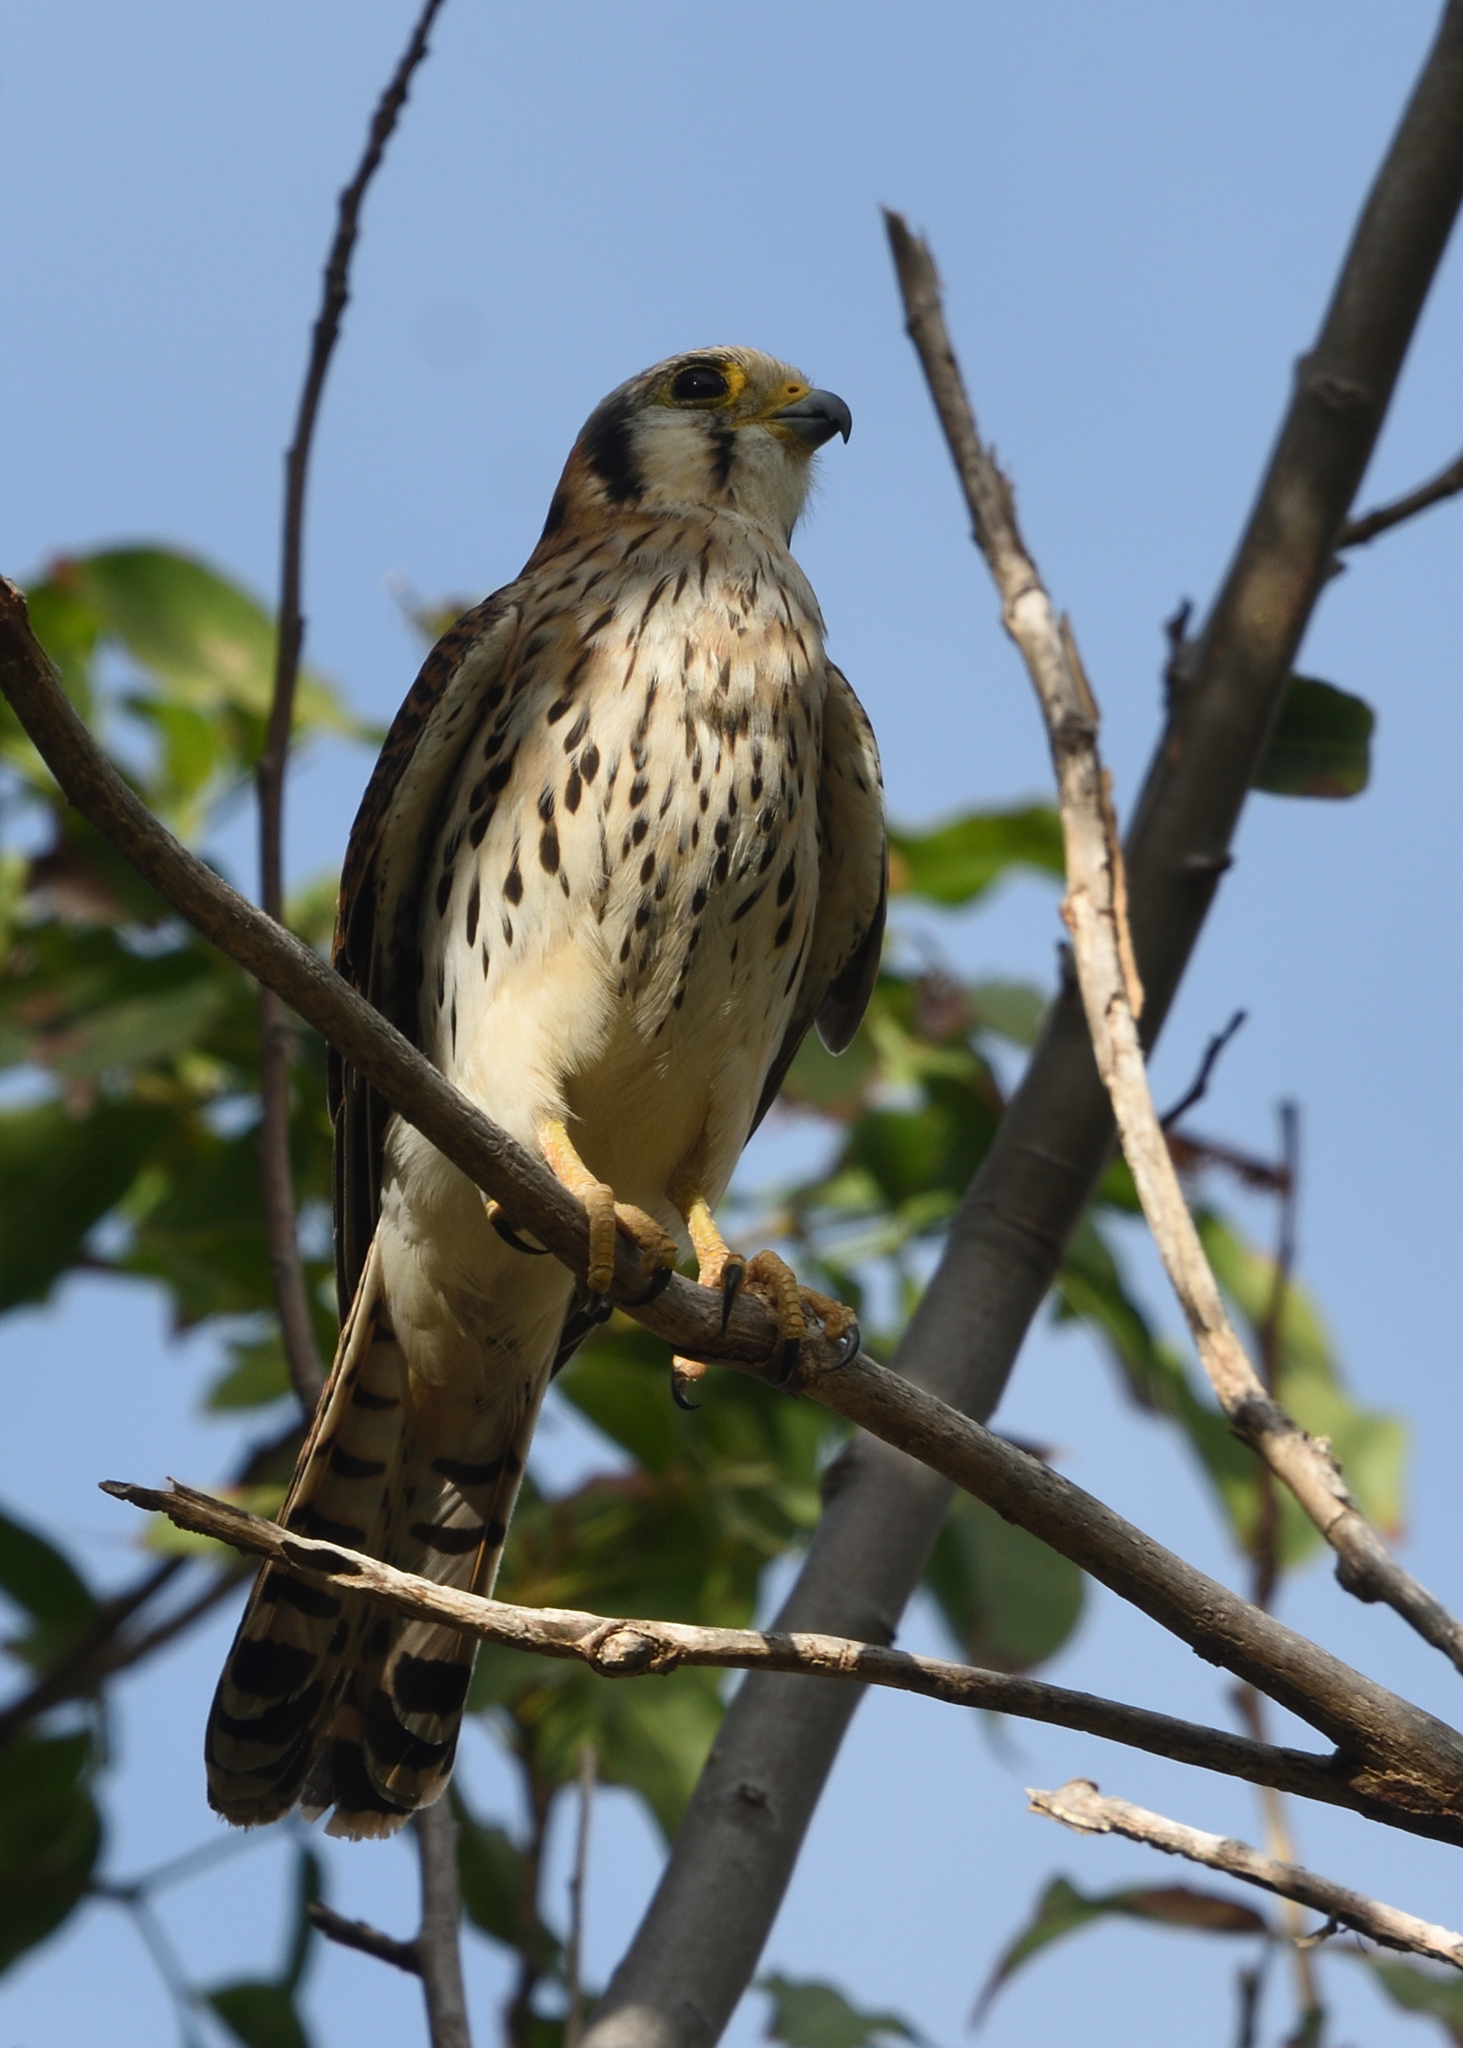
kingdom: Animalia
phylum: Chordata
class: Aves
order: Falconiformes
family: Falconidae
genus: Falco
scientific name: Falco sparverius
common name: American kestrel
